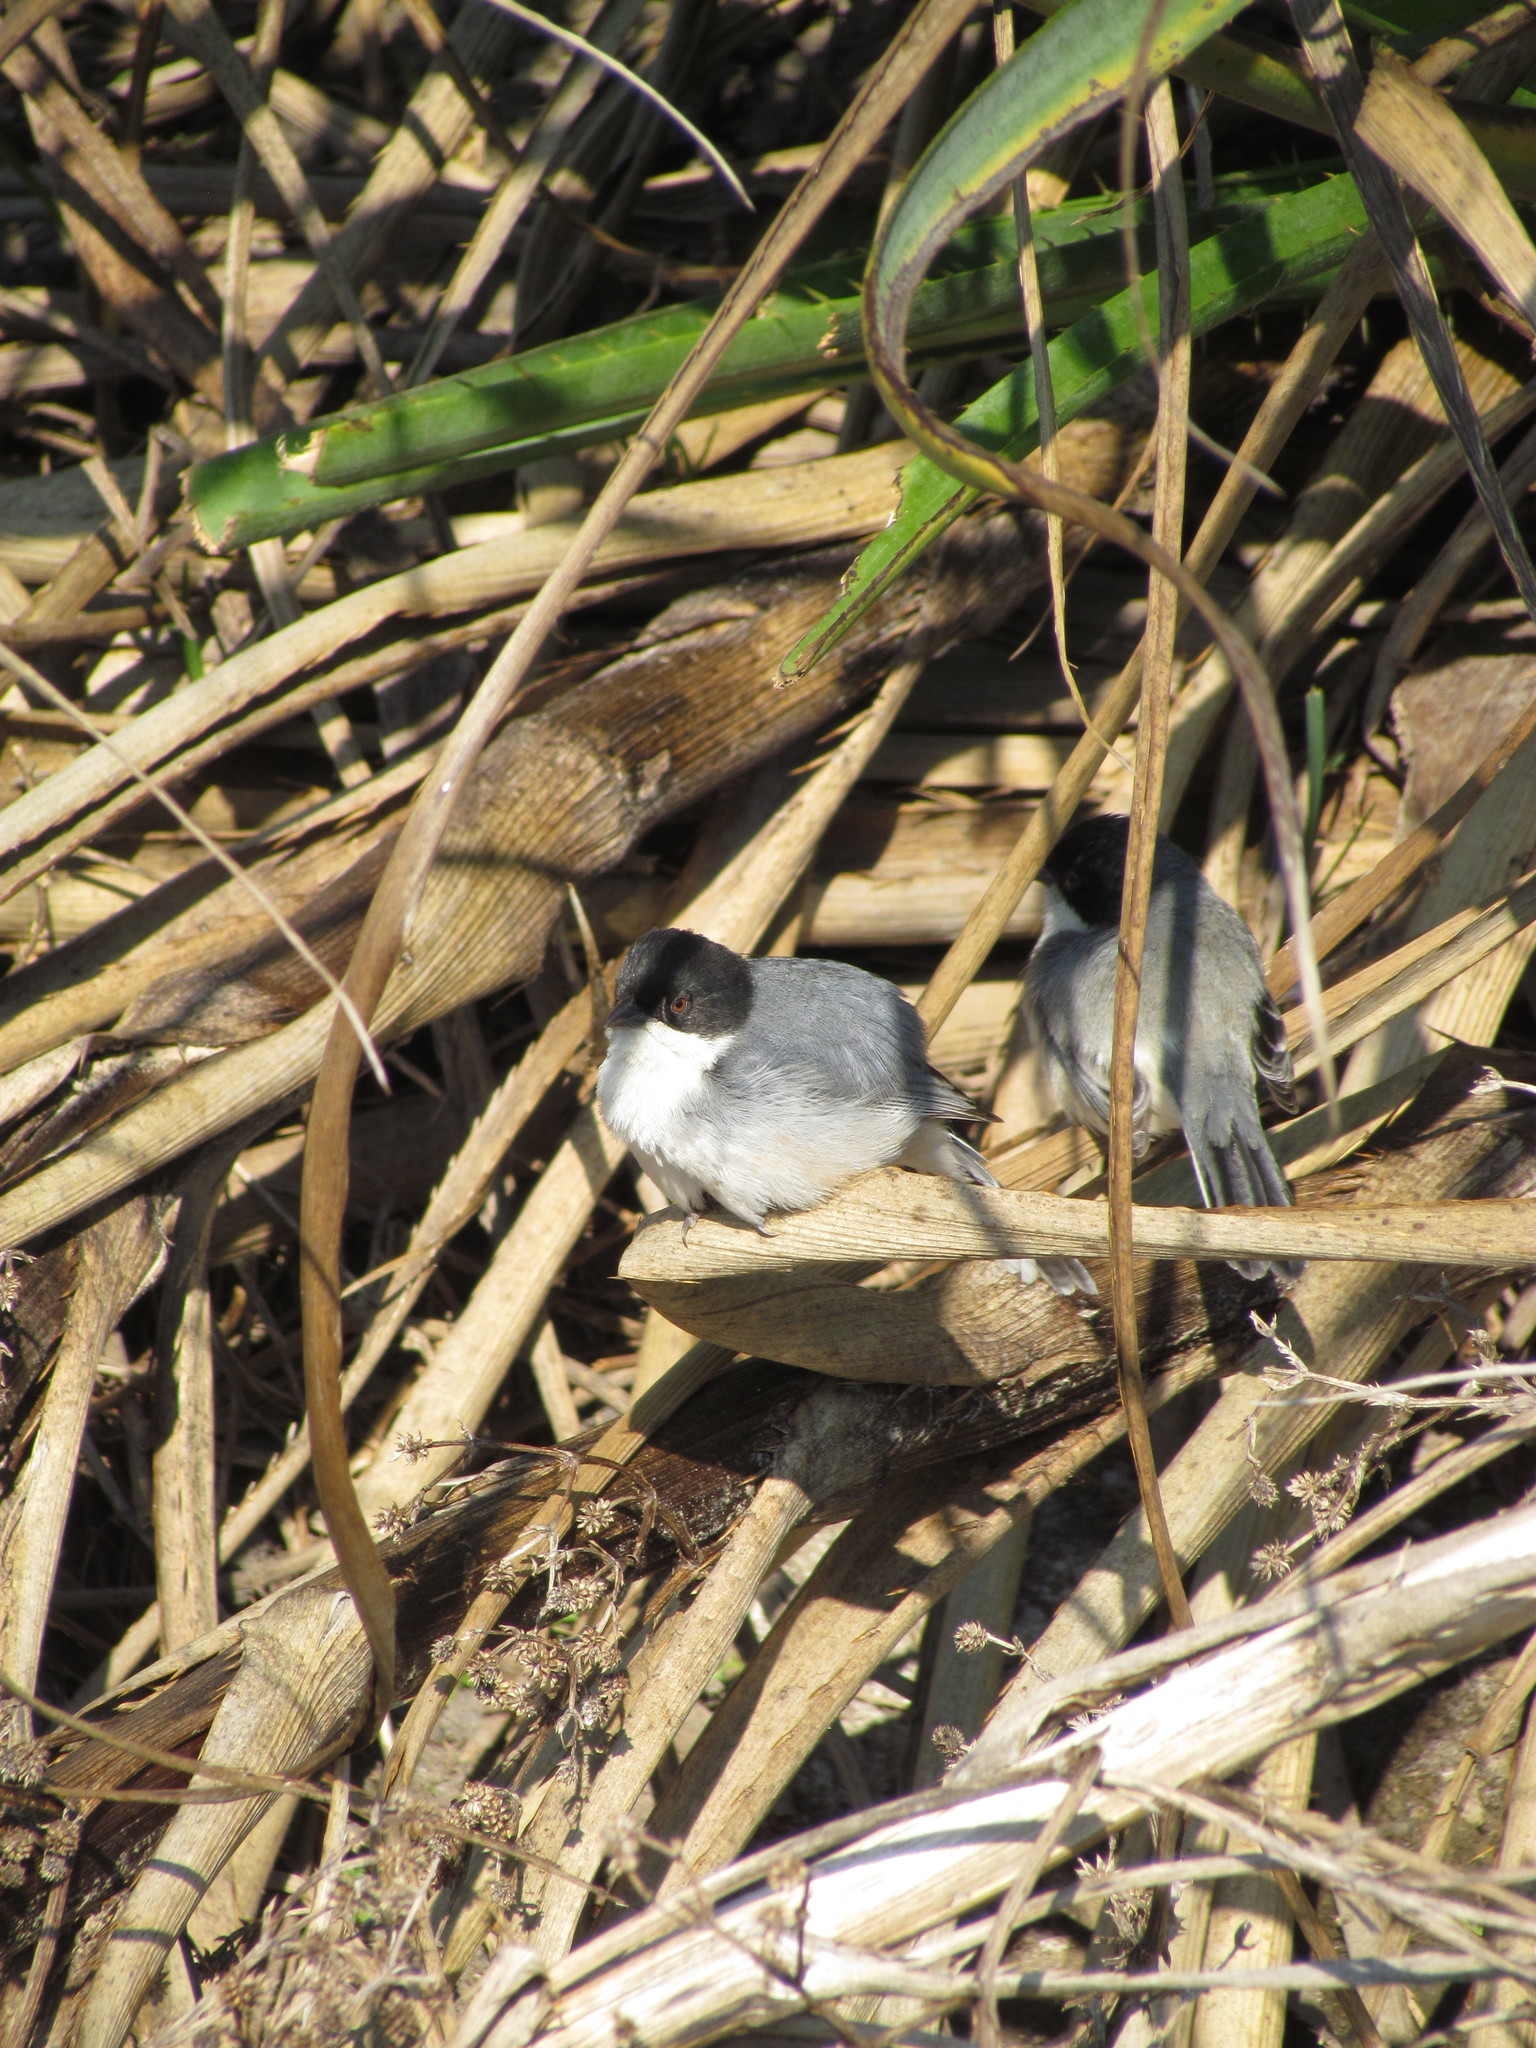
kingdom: Animalia
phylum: Chordata
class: Aves
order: Passeriformes
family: Thraupidae
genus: Microspingus
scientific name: Microspingus melanoleucus
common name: Black-capped warbling-finch
